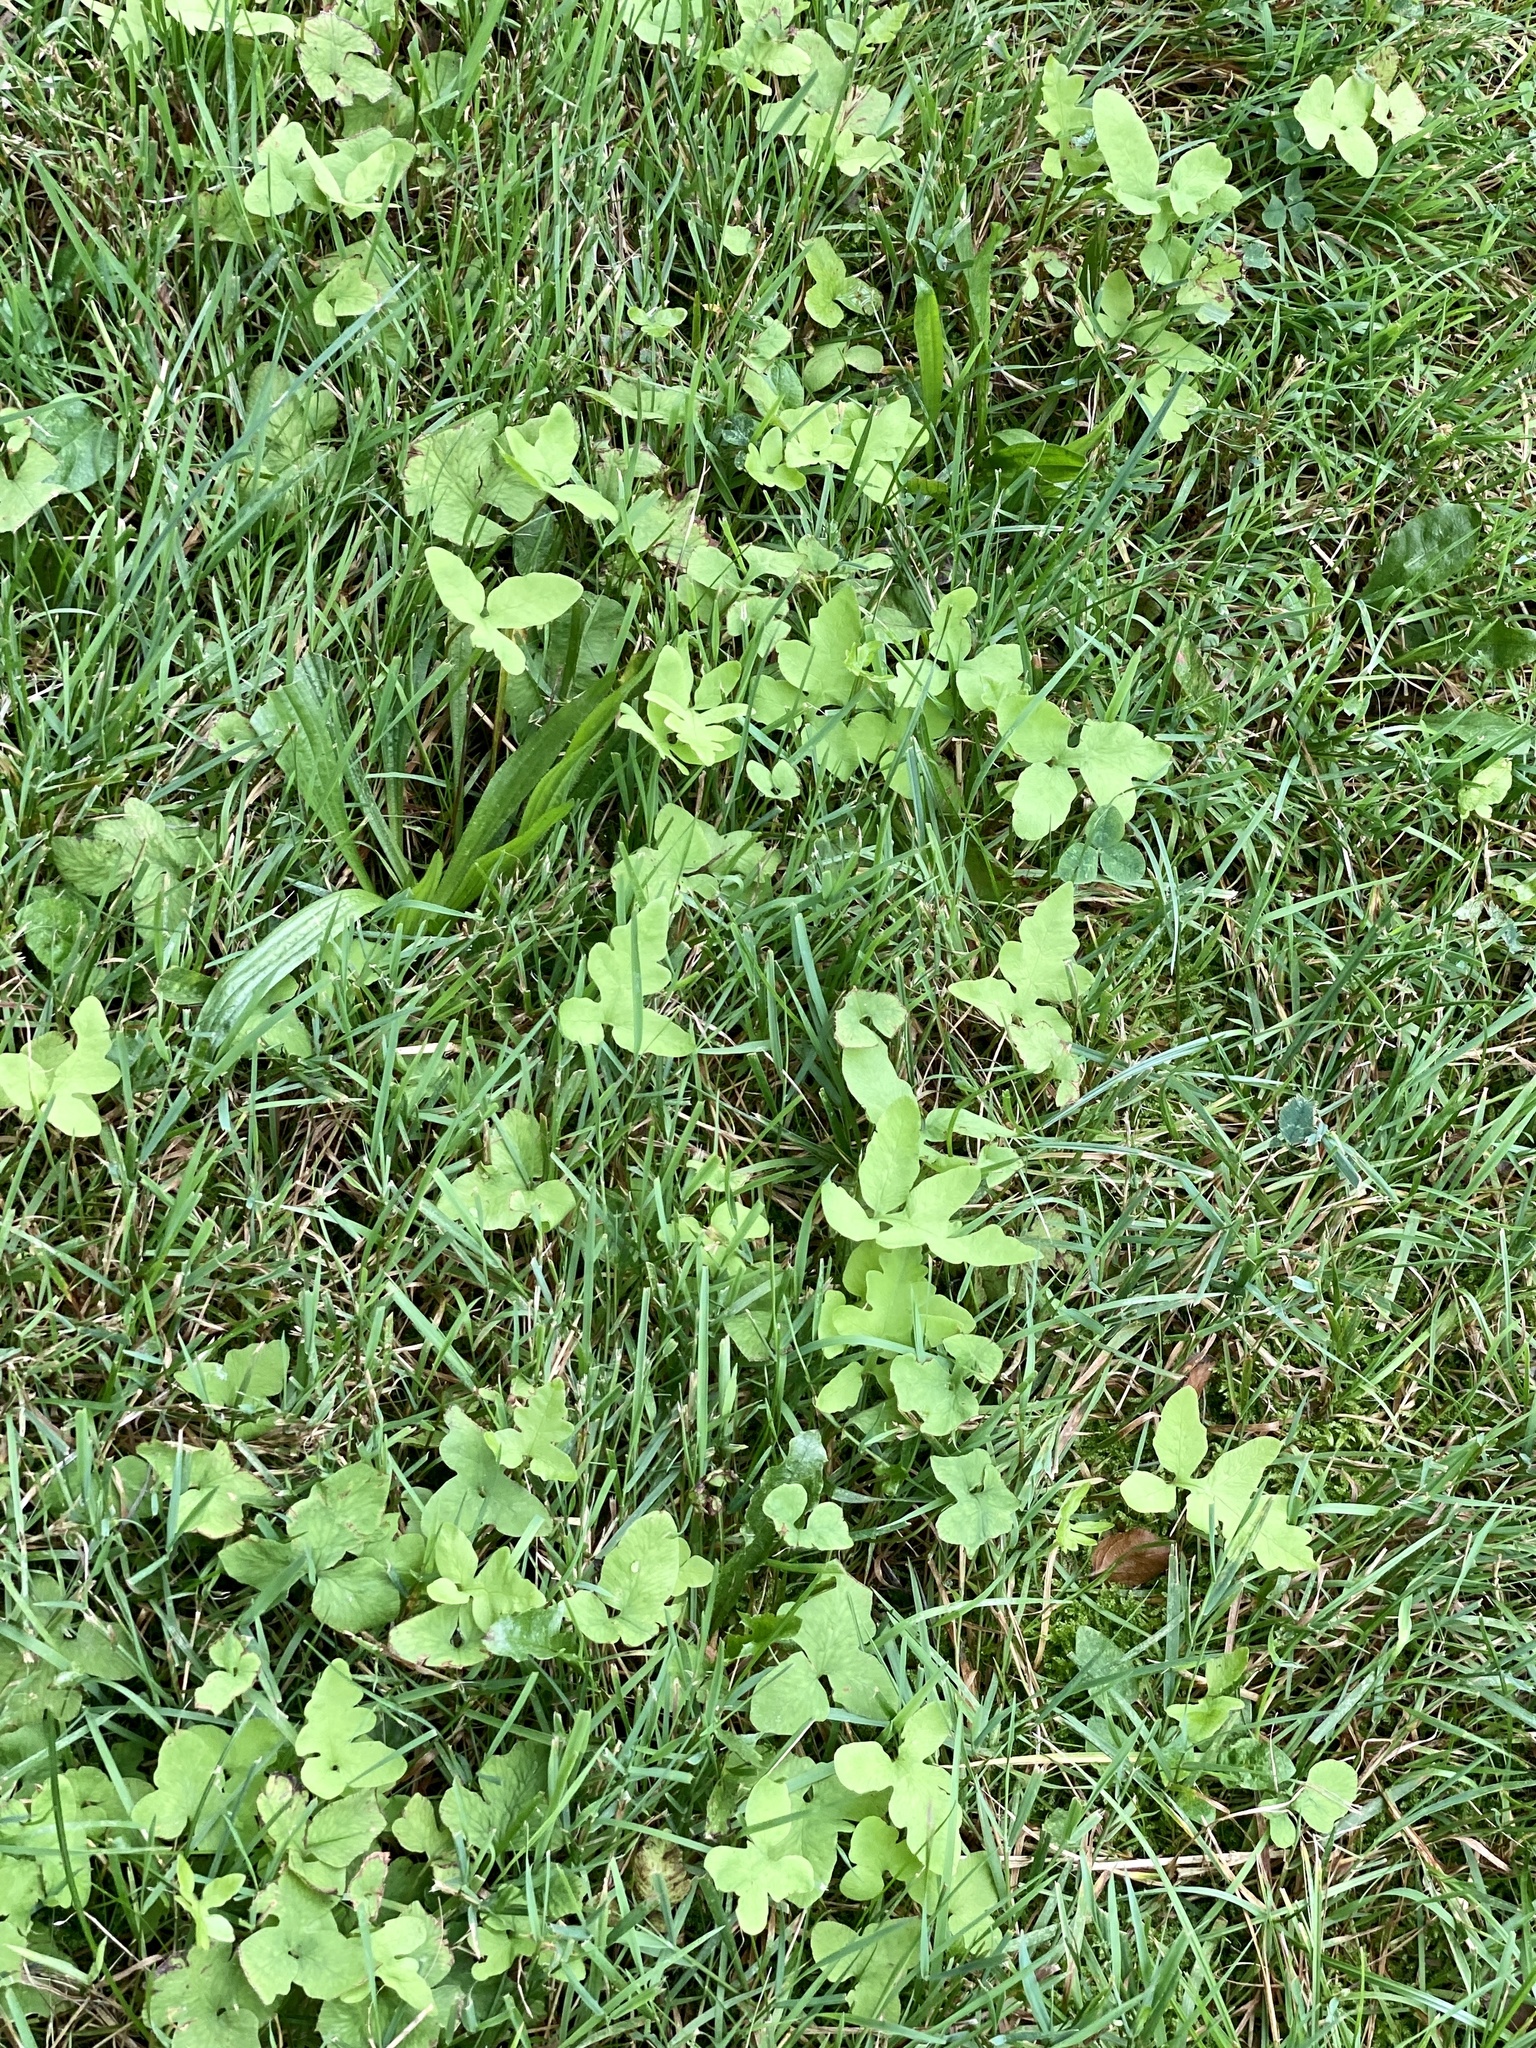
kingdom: Plantae
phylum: Tracheophyta
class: Polypodiopsida
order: Polypodiales
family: Onocleaceae
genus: Onoclea
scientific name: Onoclea sensibilis
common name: Sensitive fern
